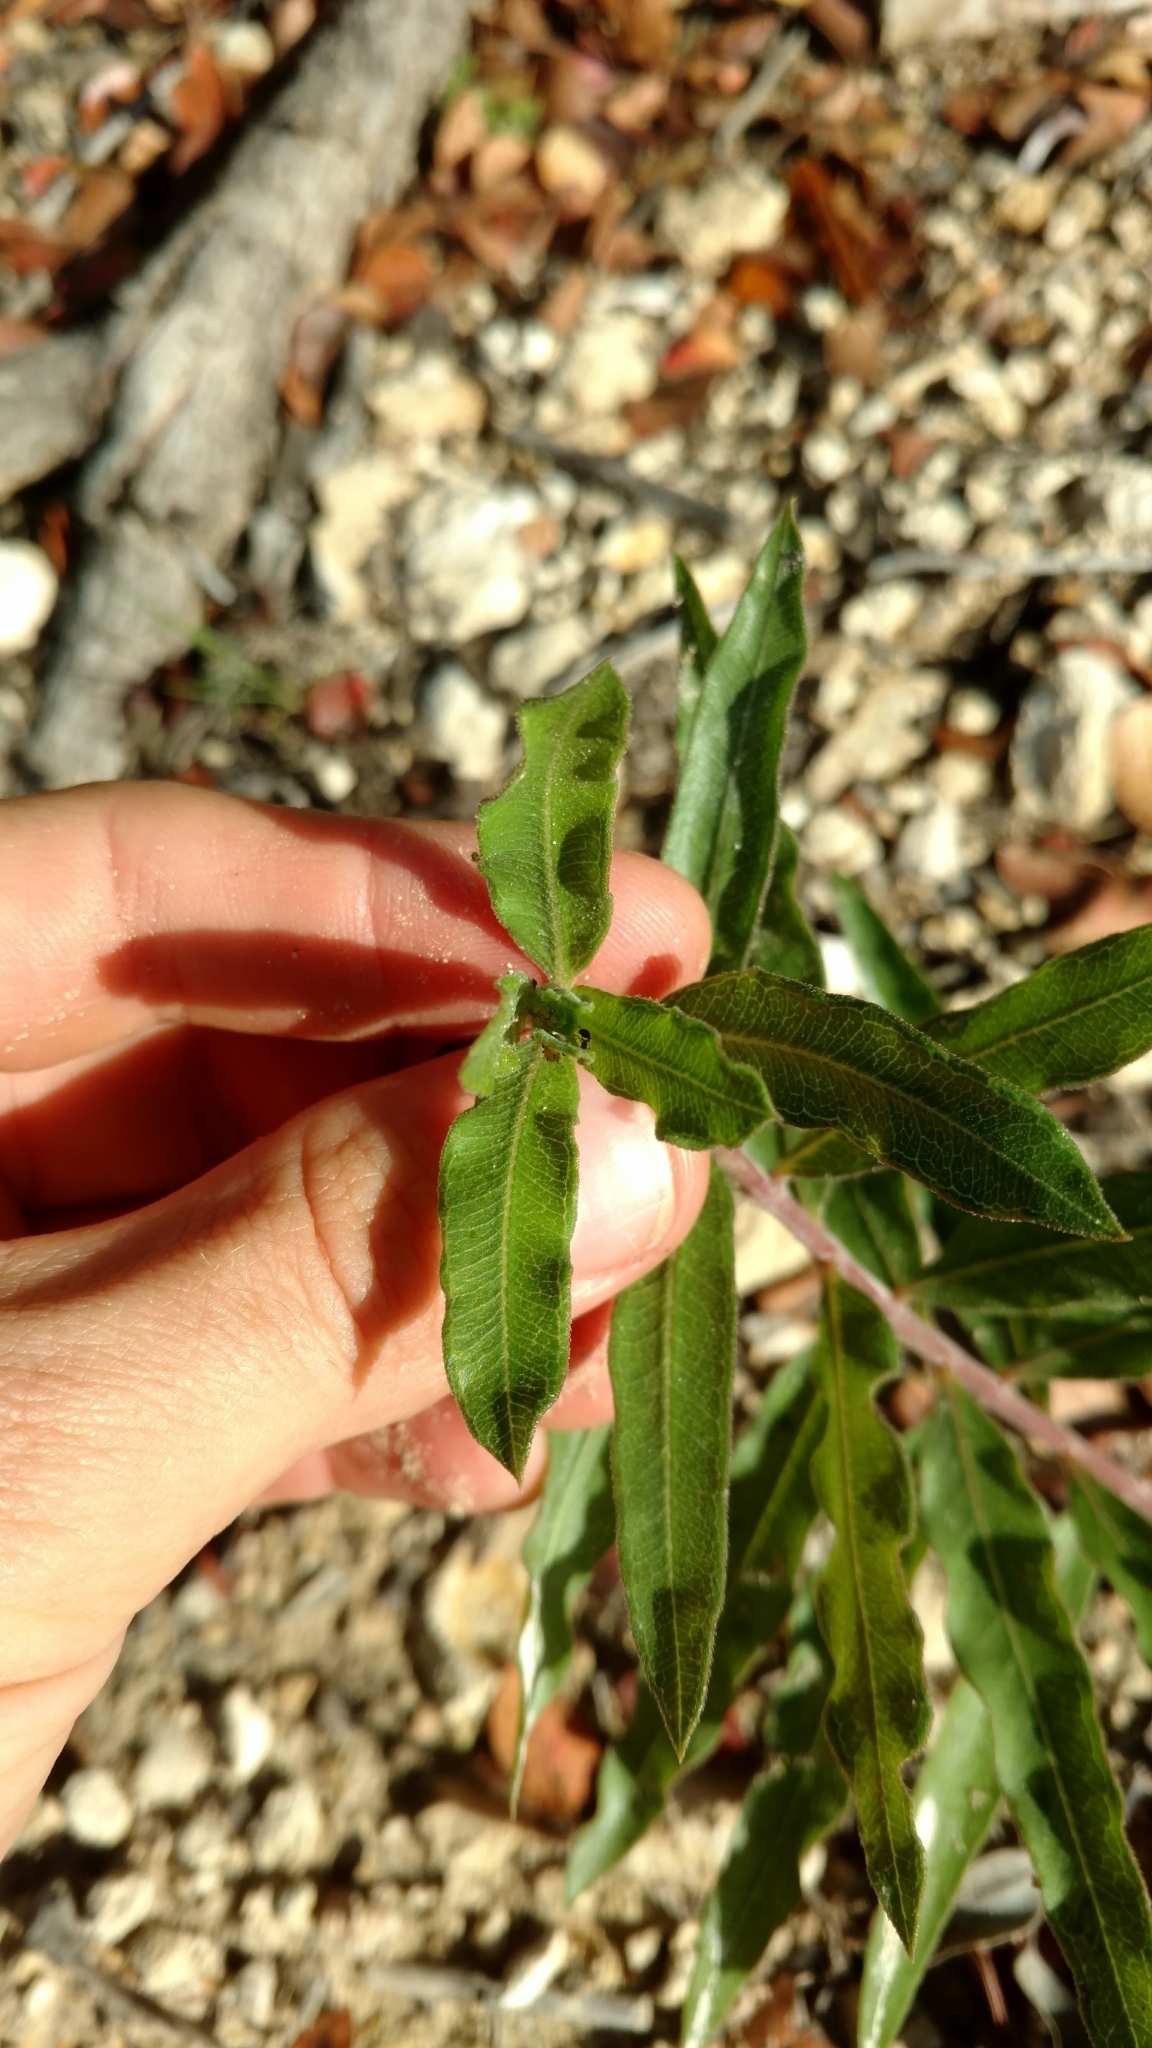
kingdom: Plantae
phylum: Tracheophyta
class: Magnoliopsida
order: Gentianales
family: Apocynaceae
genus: Asclepias
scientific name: Asclepias viridiflora
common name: Green comet milkweed
